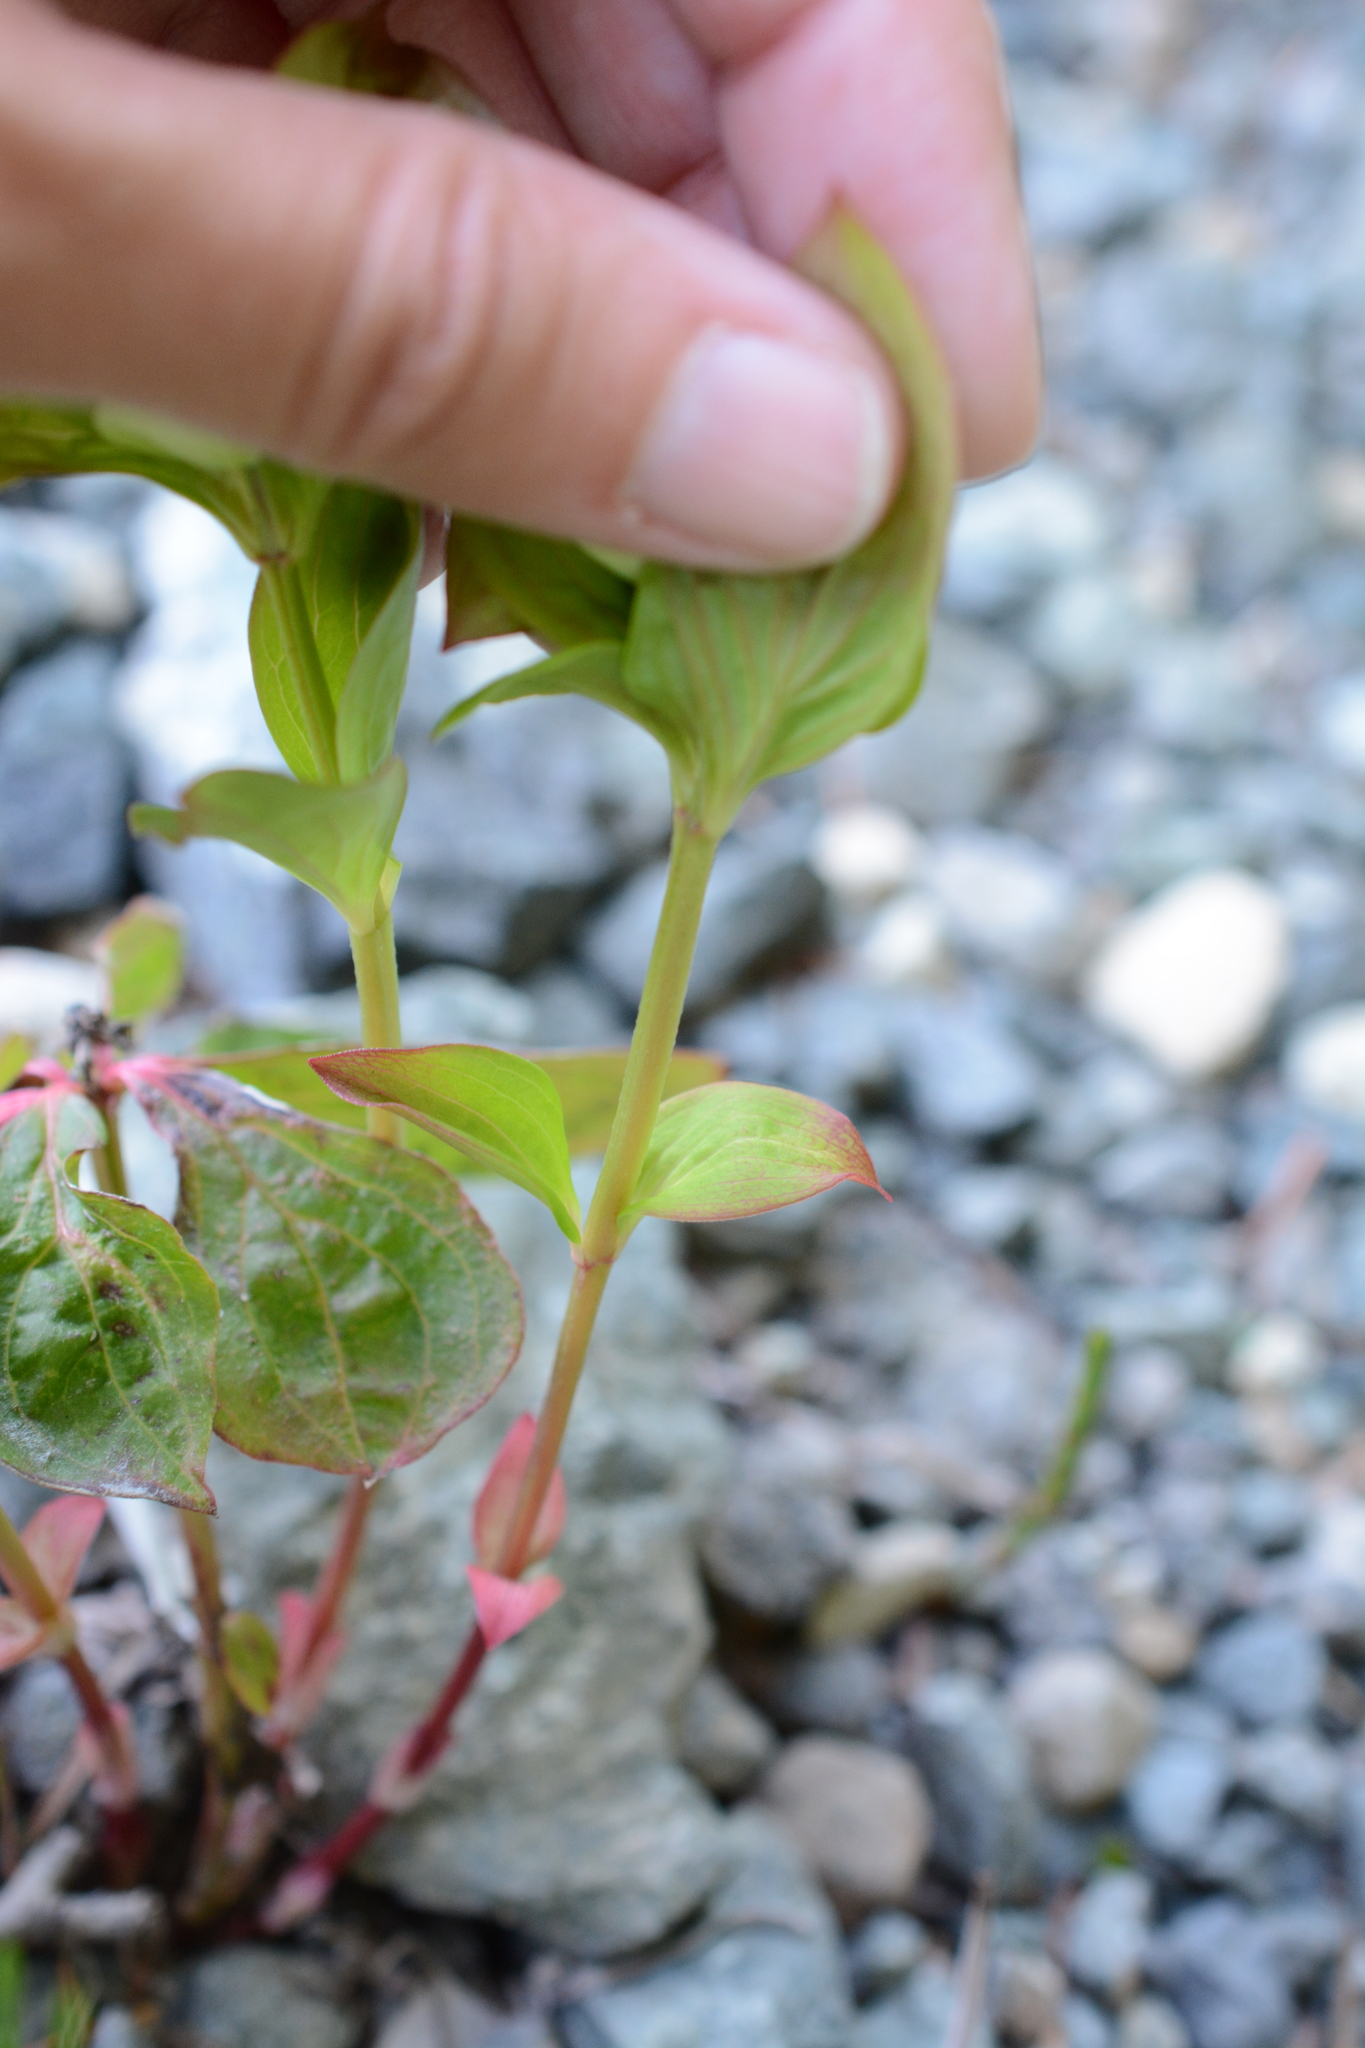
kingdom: Plantae
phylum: Tracheophyta
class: Magnoliopsida
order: Cornales
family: Cornaceae
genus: Cornus
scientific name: Cornus unalaschkensis
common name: Alaska bunchberry
